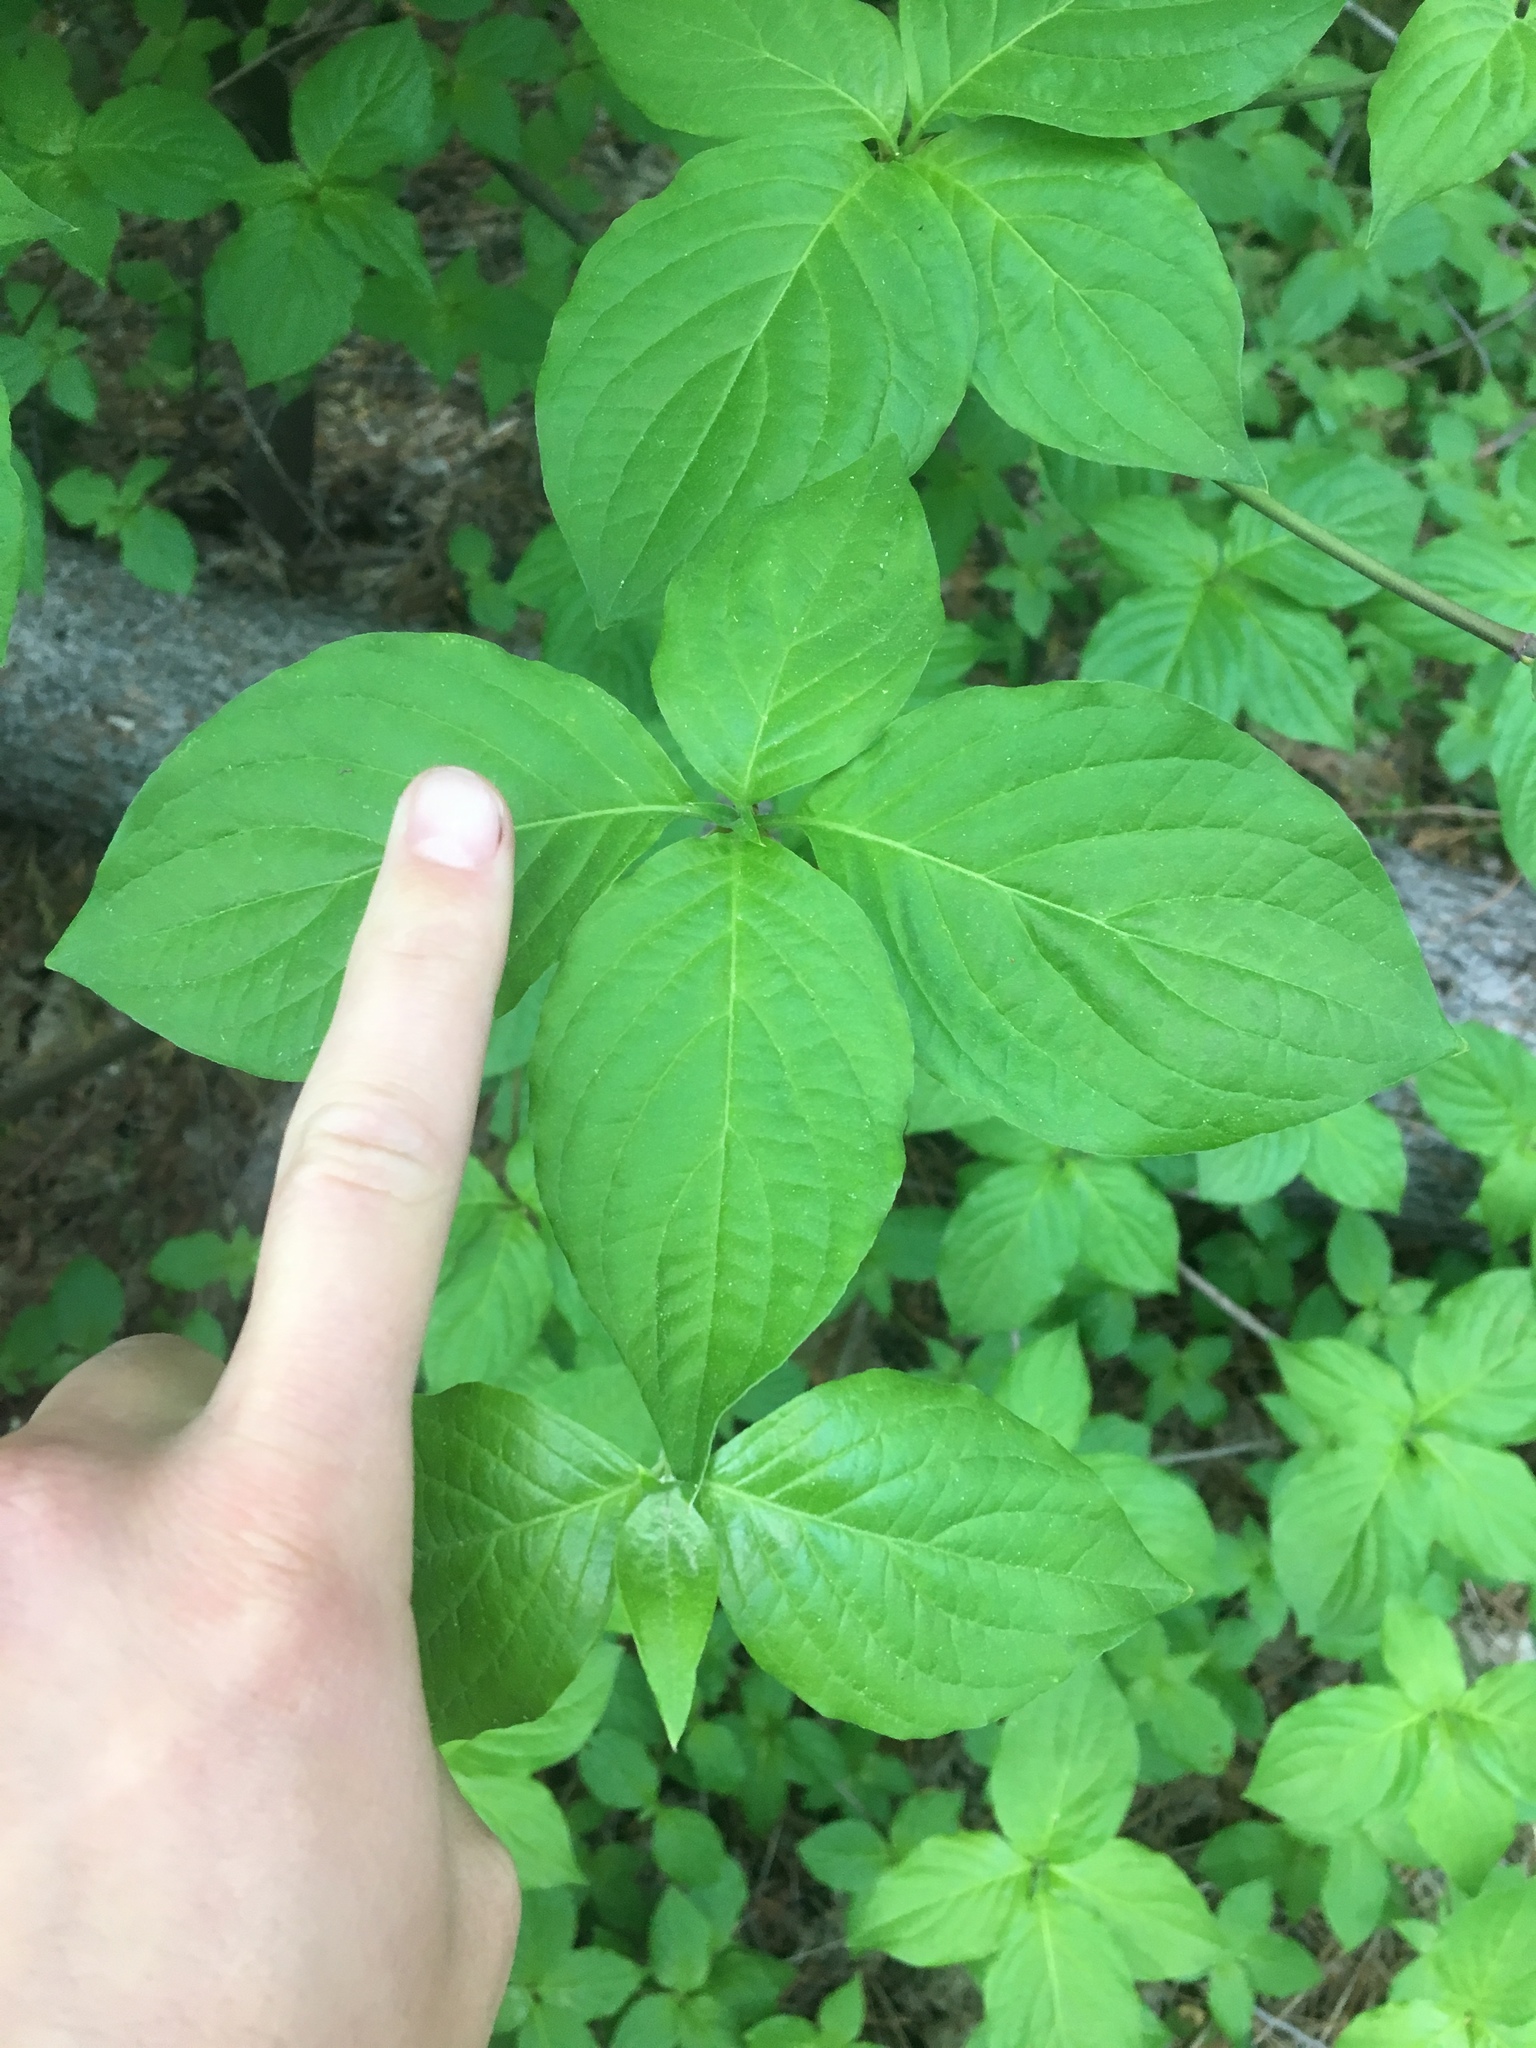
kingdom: Plantae
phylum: Tracheophyta
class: Magnoliopsida
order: Cornales
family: Cornaceae
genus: Cornus
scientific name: Cornus nuttallii
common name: Pacific dogwood
